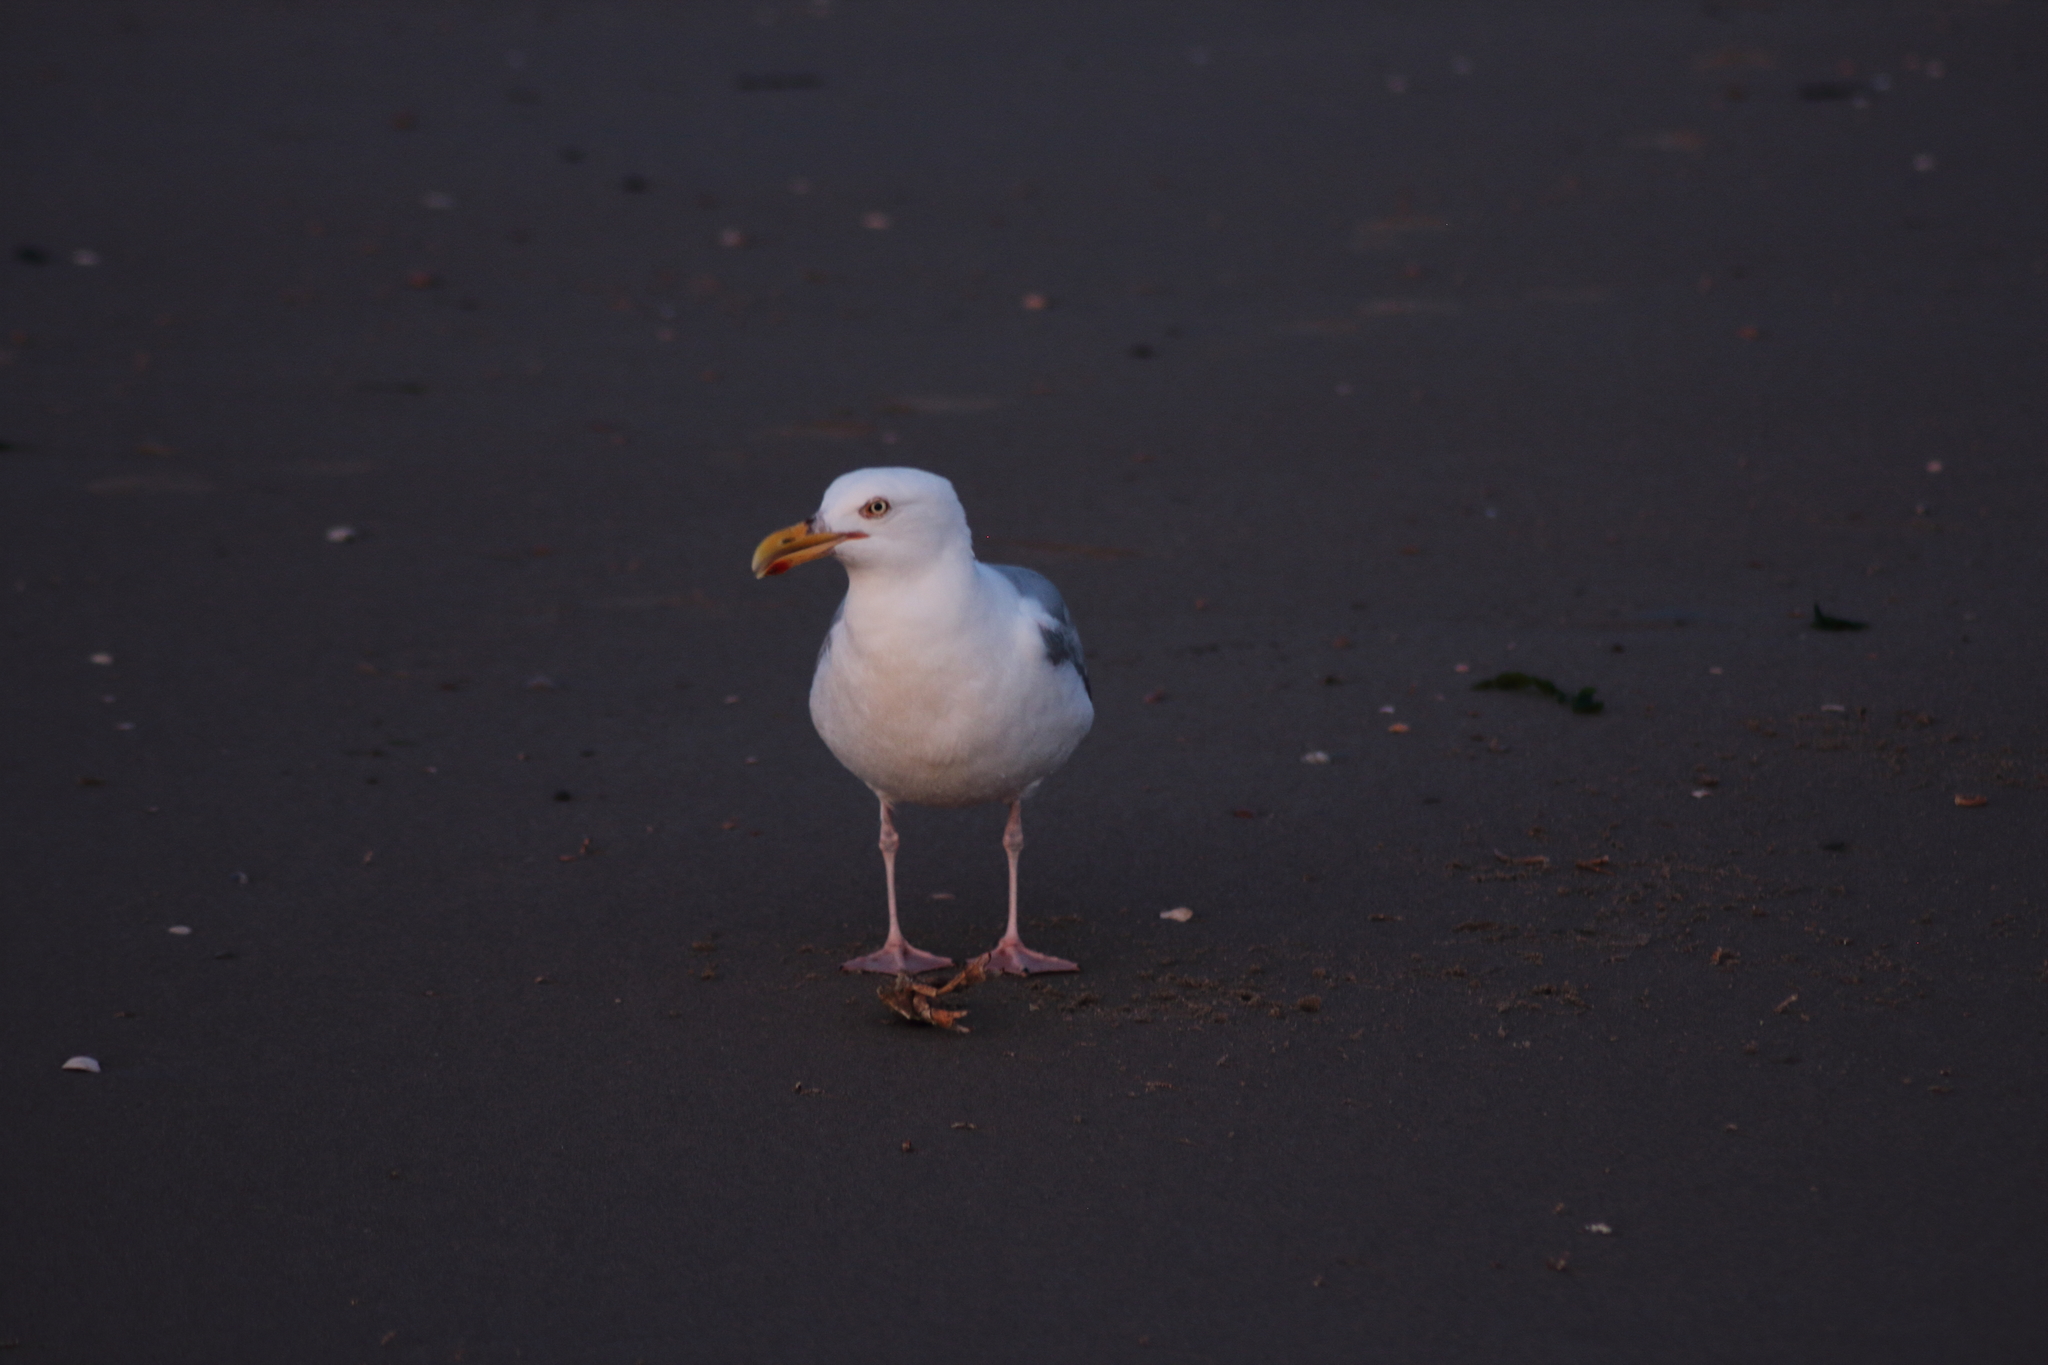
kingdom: Animalia
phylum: Chordata
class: Aves
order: Charadriiformes
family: Laridae
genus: Larus
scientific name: Larus argentatus
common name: Herring gull
